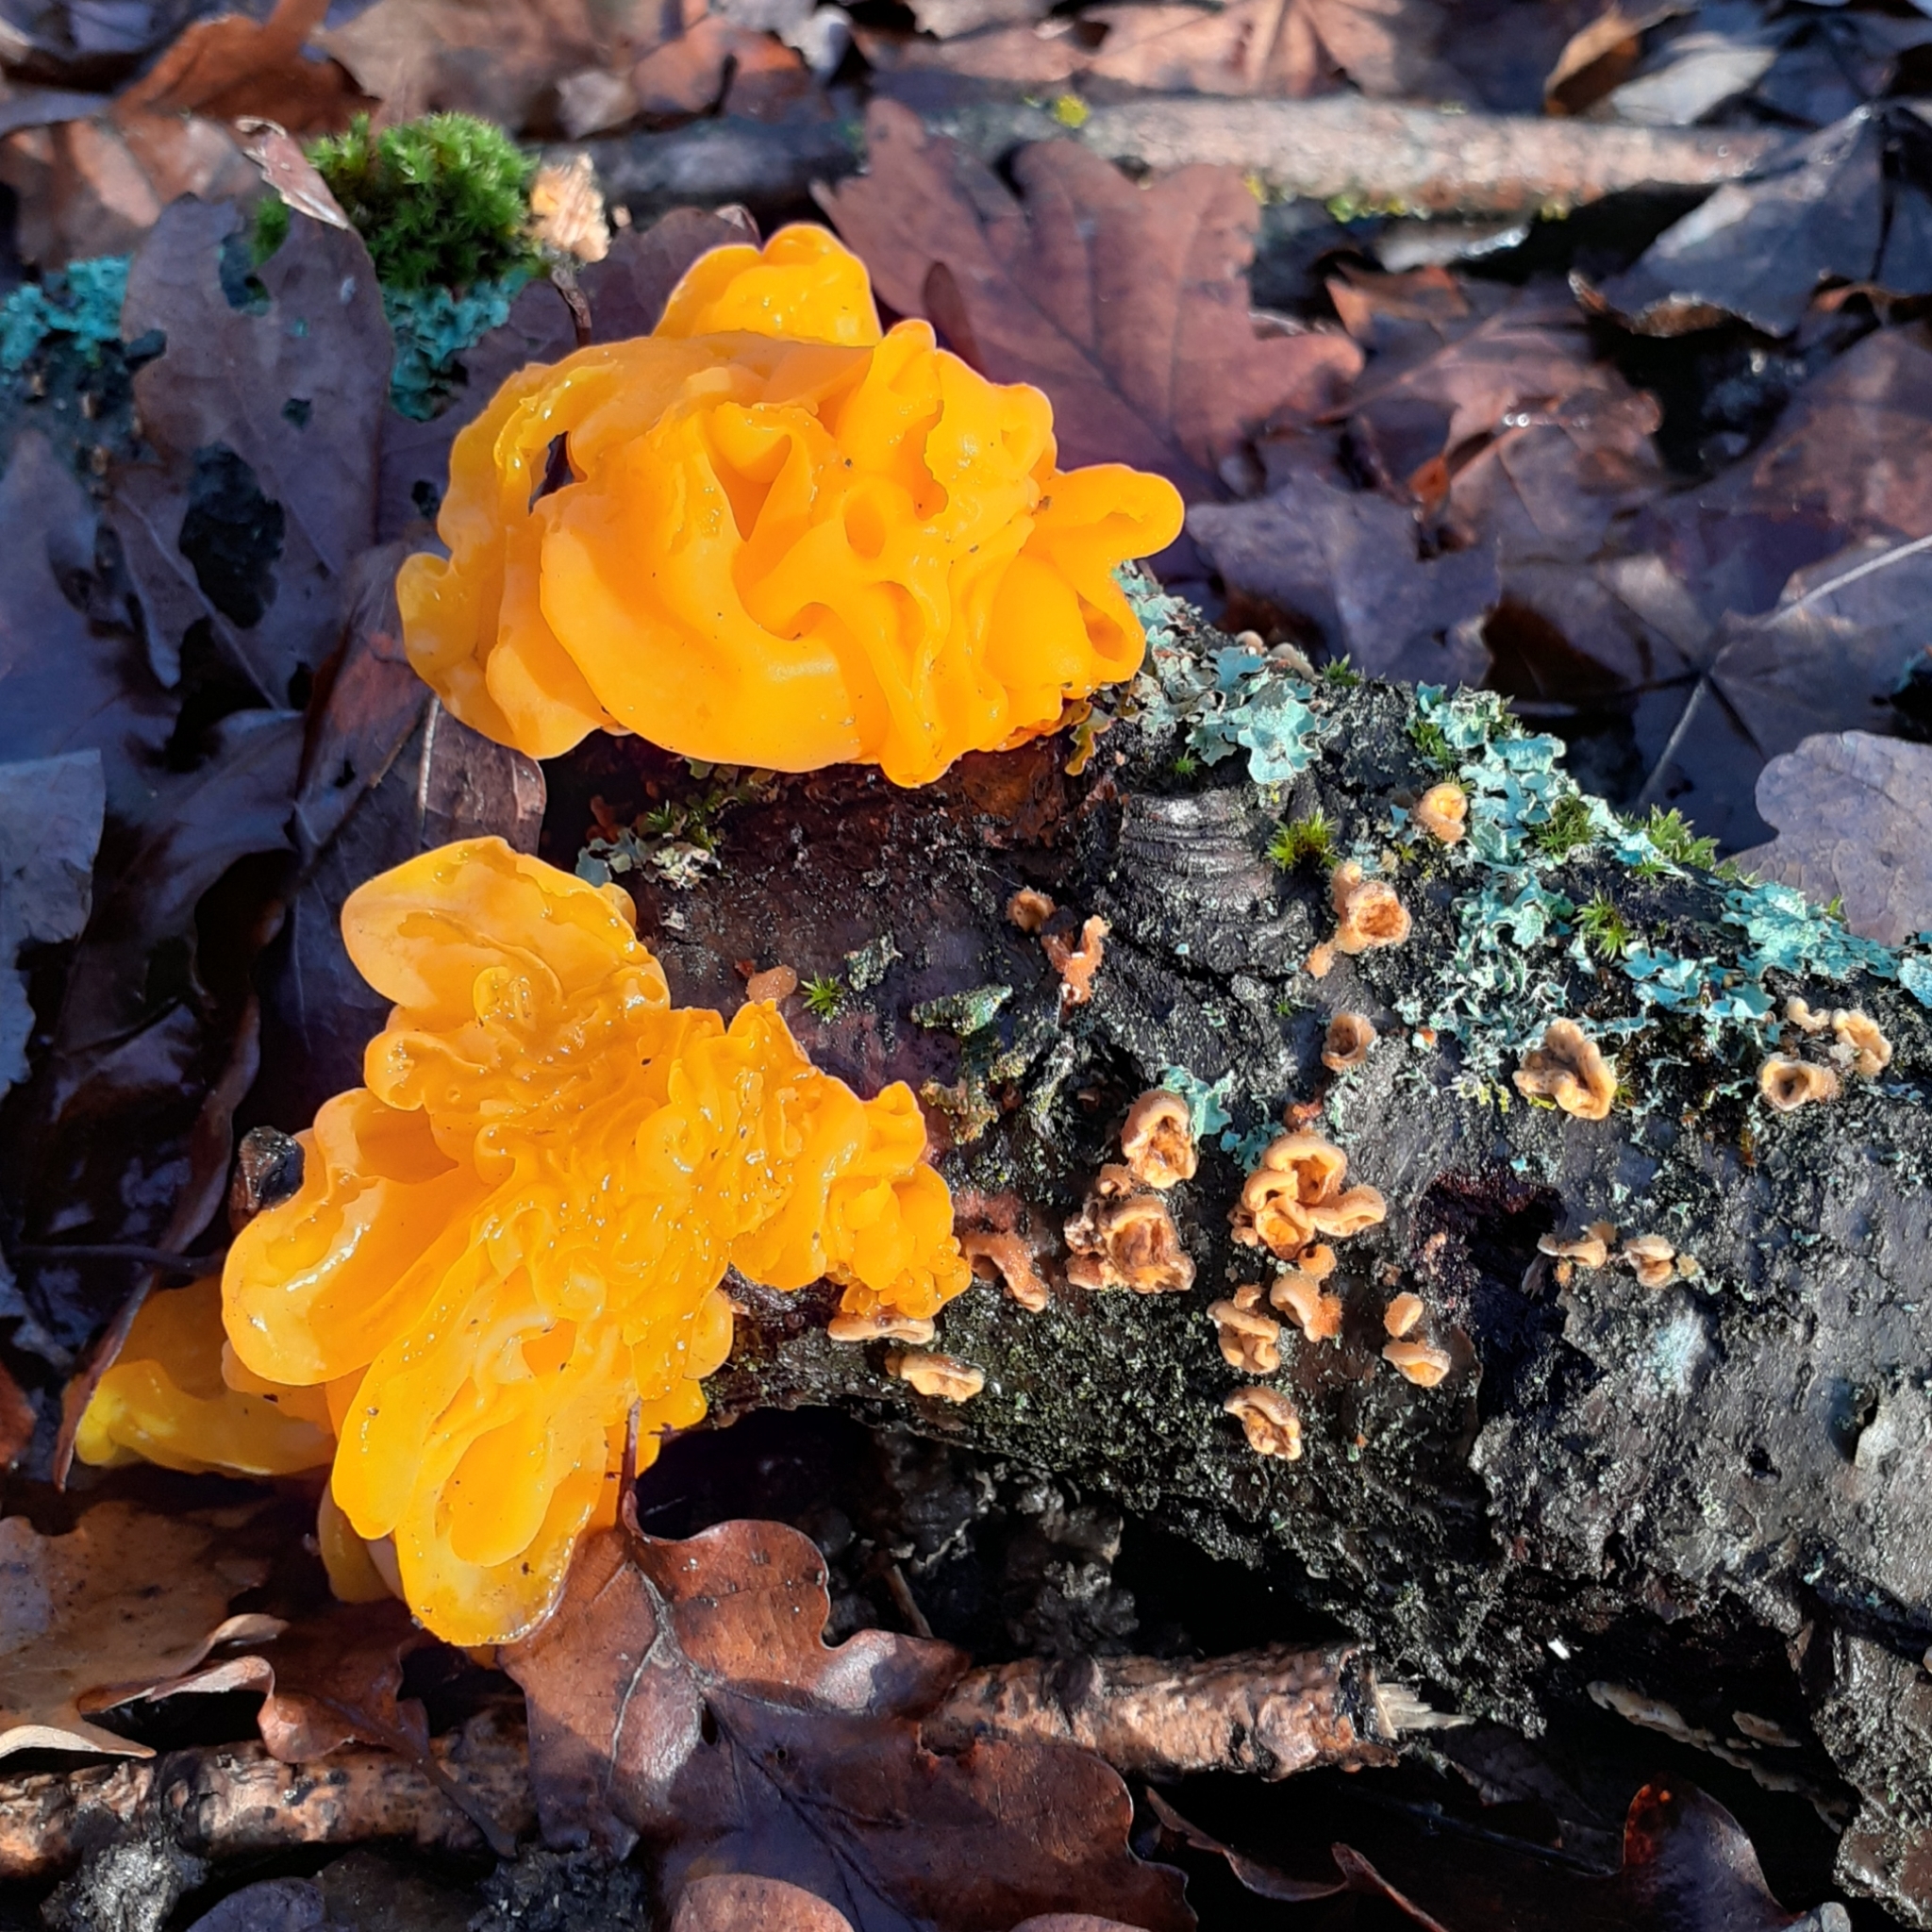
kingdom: Fungi
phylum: Basidiomycota
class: Tremellomycetes
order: Tremellales
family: Naemateliaceae
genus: Naematelia
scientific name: Naematelia aurantia
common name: Golden ear
